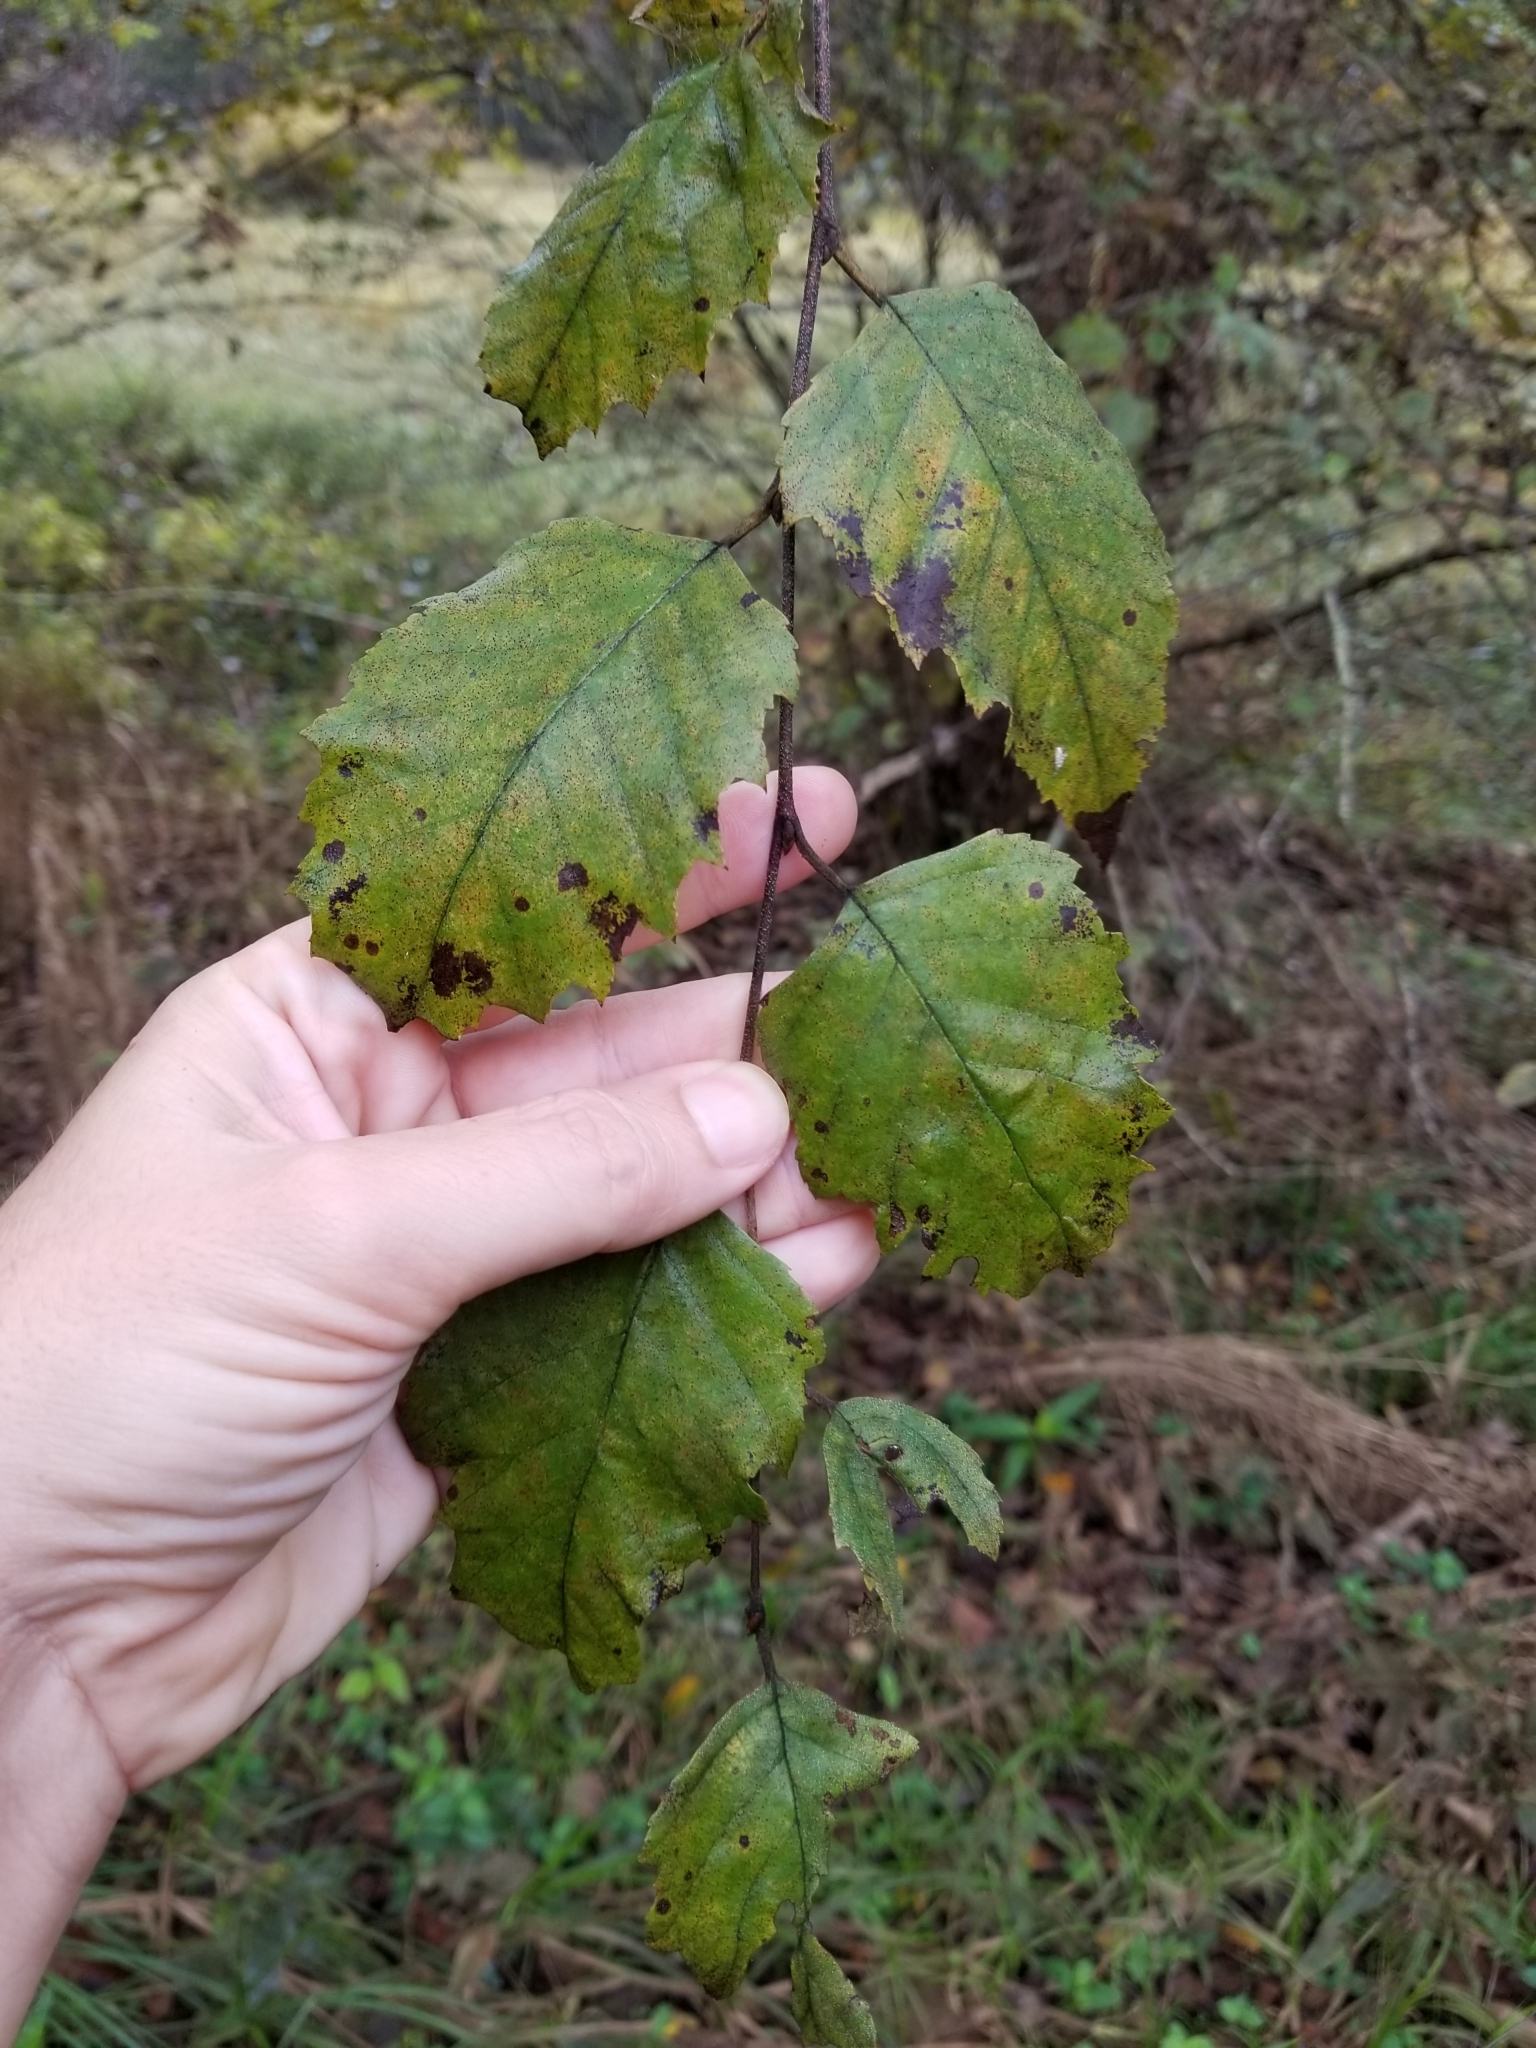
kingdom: Plantae
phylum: Tracheophyta
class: Magnoliopsida
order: Fagales
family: Betulaceae
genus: Betula
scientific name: Betula nigra
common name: Black birch
